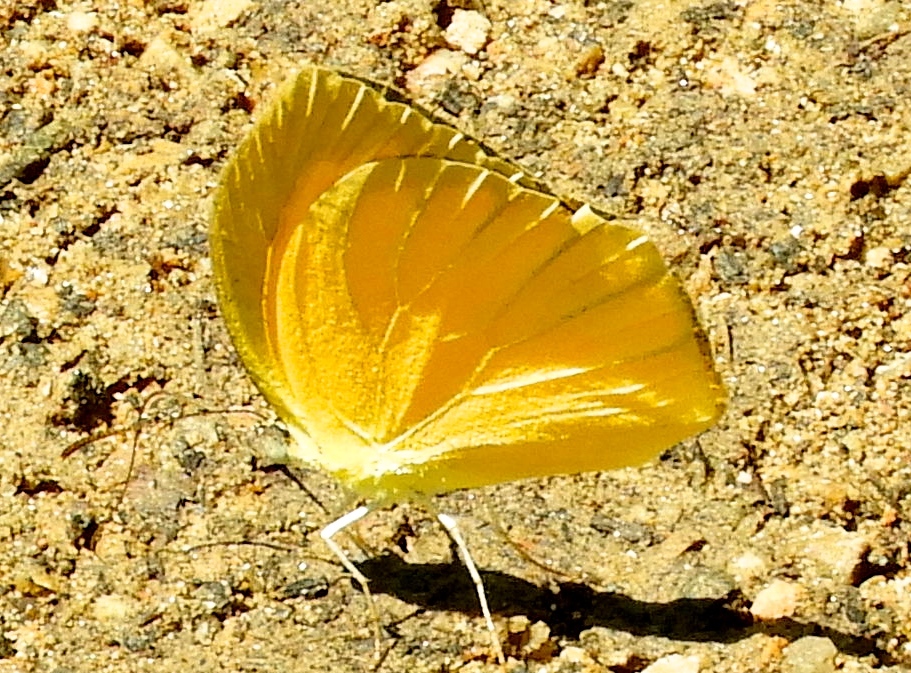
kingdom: Animalia
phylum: Arthropoda
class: Insecta
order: Lepidoptera
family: Pieridae
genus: Pyrisitia
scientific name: Pyrisitia proterpia
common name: Tailed orange
